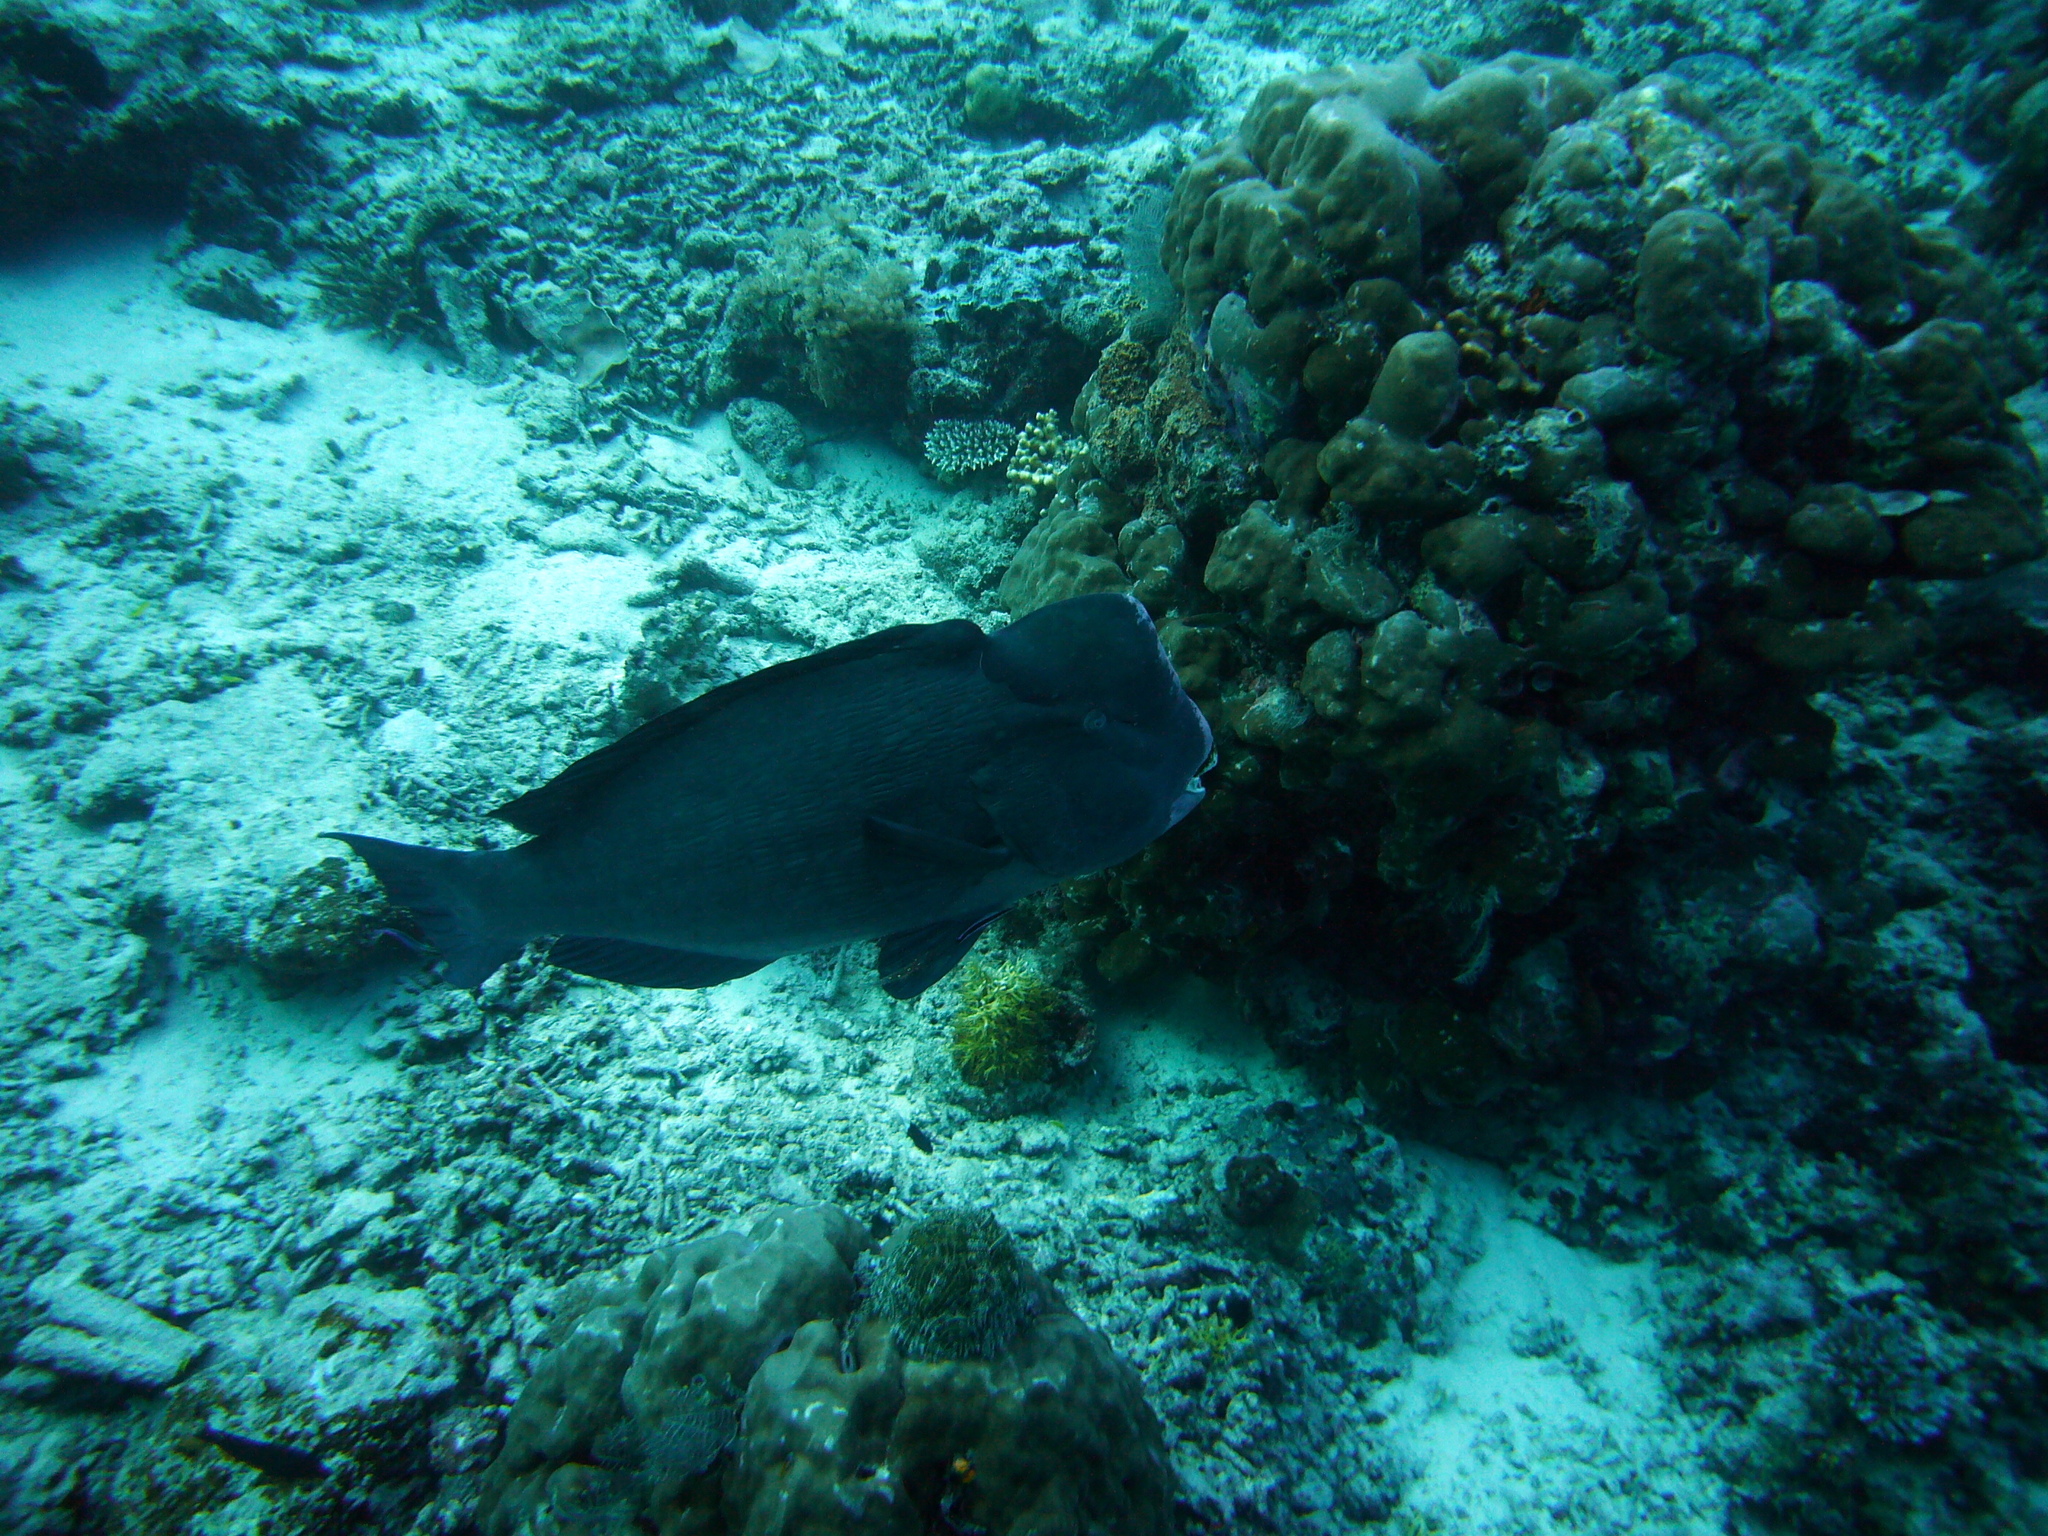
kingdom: Animalia
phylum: Chordata
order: Perciformes
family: Scaridae
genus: Bolbometopon
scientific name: Bolbometopon muricatum
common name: Humphead parrotfish
